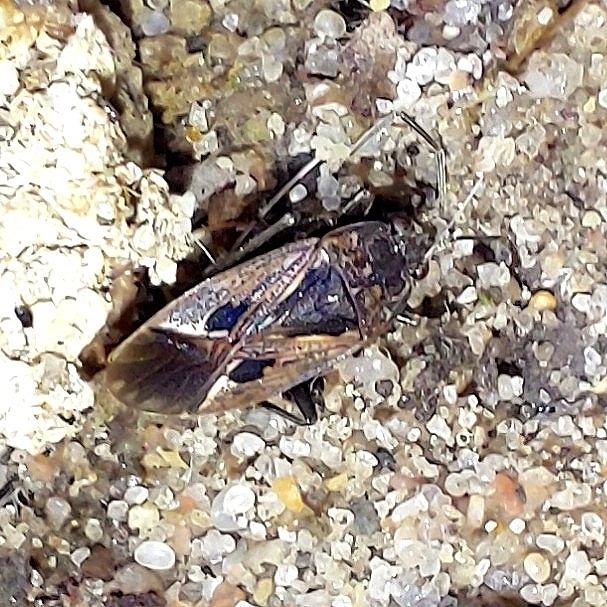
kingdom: Animalia
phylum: Arthropoda
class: Insecta
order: Hemiptera
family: Rhyparochromidae
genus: Rhyparochromus
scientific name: Rhyparochromus pini
